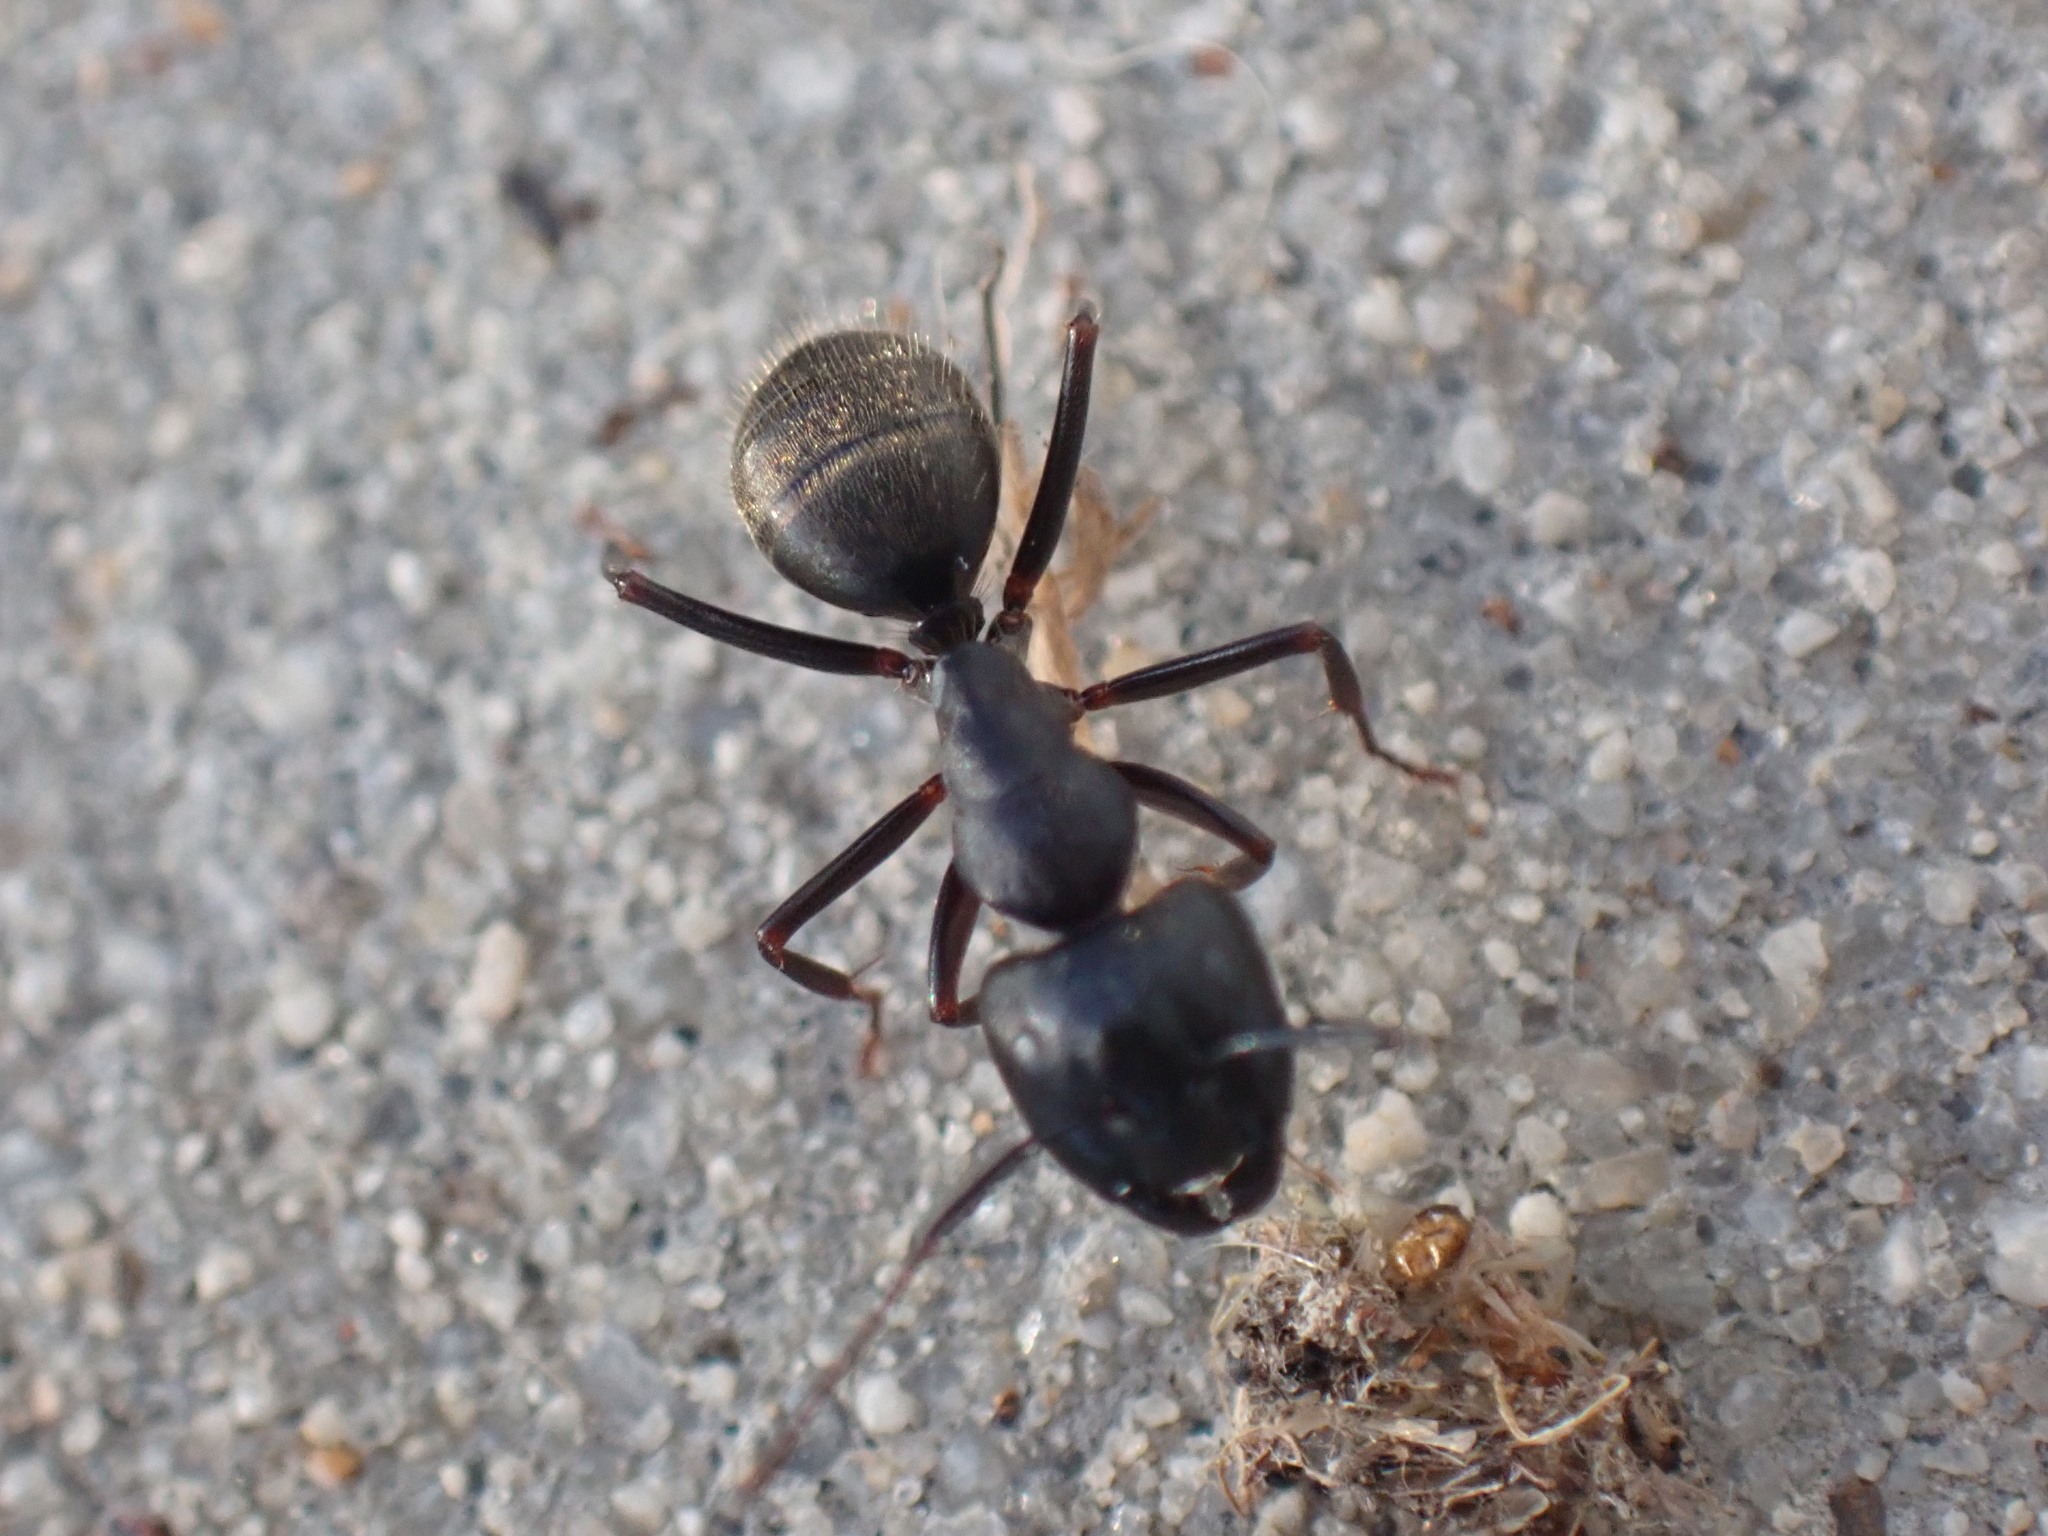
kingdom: Animalia
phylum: Arthropoda
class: Insecta
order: Hymenoptera
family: Formicidae
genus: Camponotus
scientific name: Camponotus pennsylvanicus
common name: Black carpenter ant
